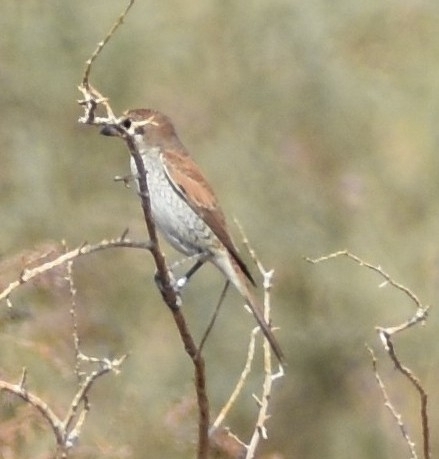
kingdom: Animalia
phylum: Chordata
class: Aves
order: Passeriformes
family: Laniidae
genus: Lanius
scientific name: Lanius collurio
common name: Red-backed shrike
